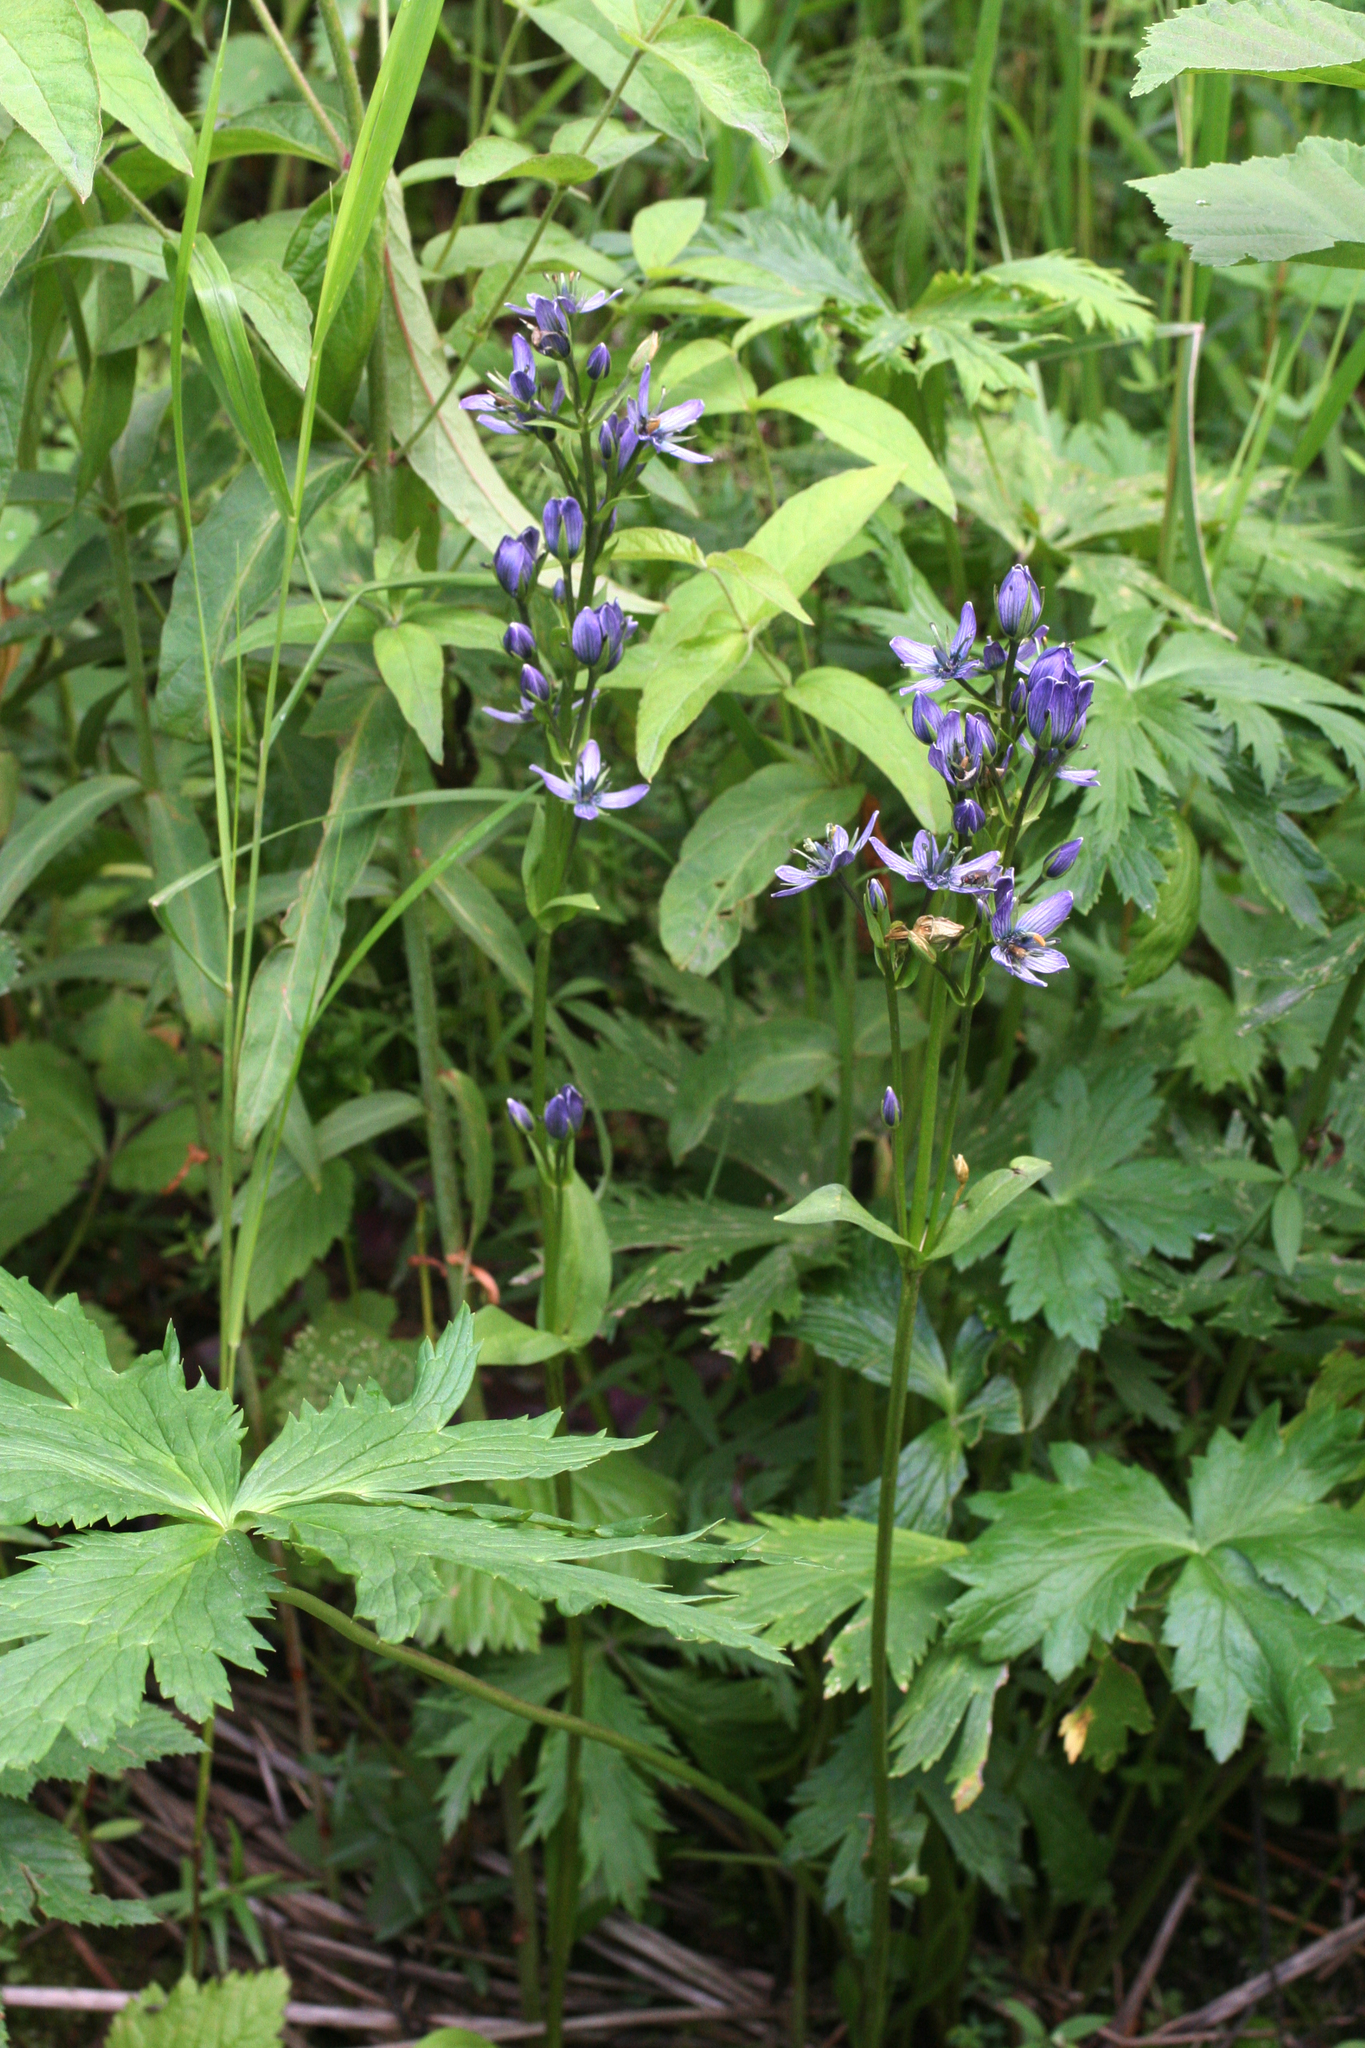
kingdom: Plantae
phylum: Tracheophyta
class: Magnoliopsida
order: Gentianales
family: Gentianaceae
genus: Swertia
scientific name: Swertia obtusa
